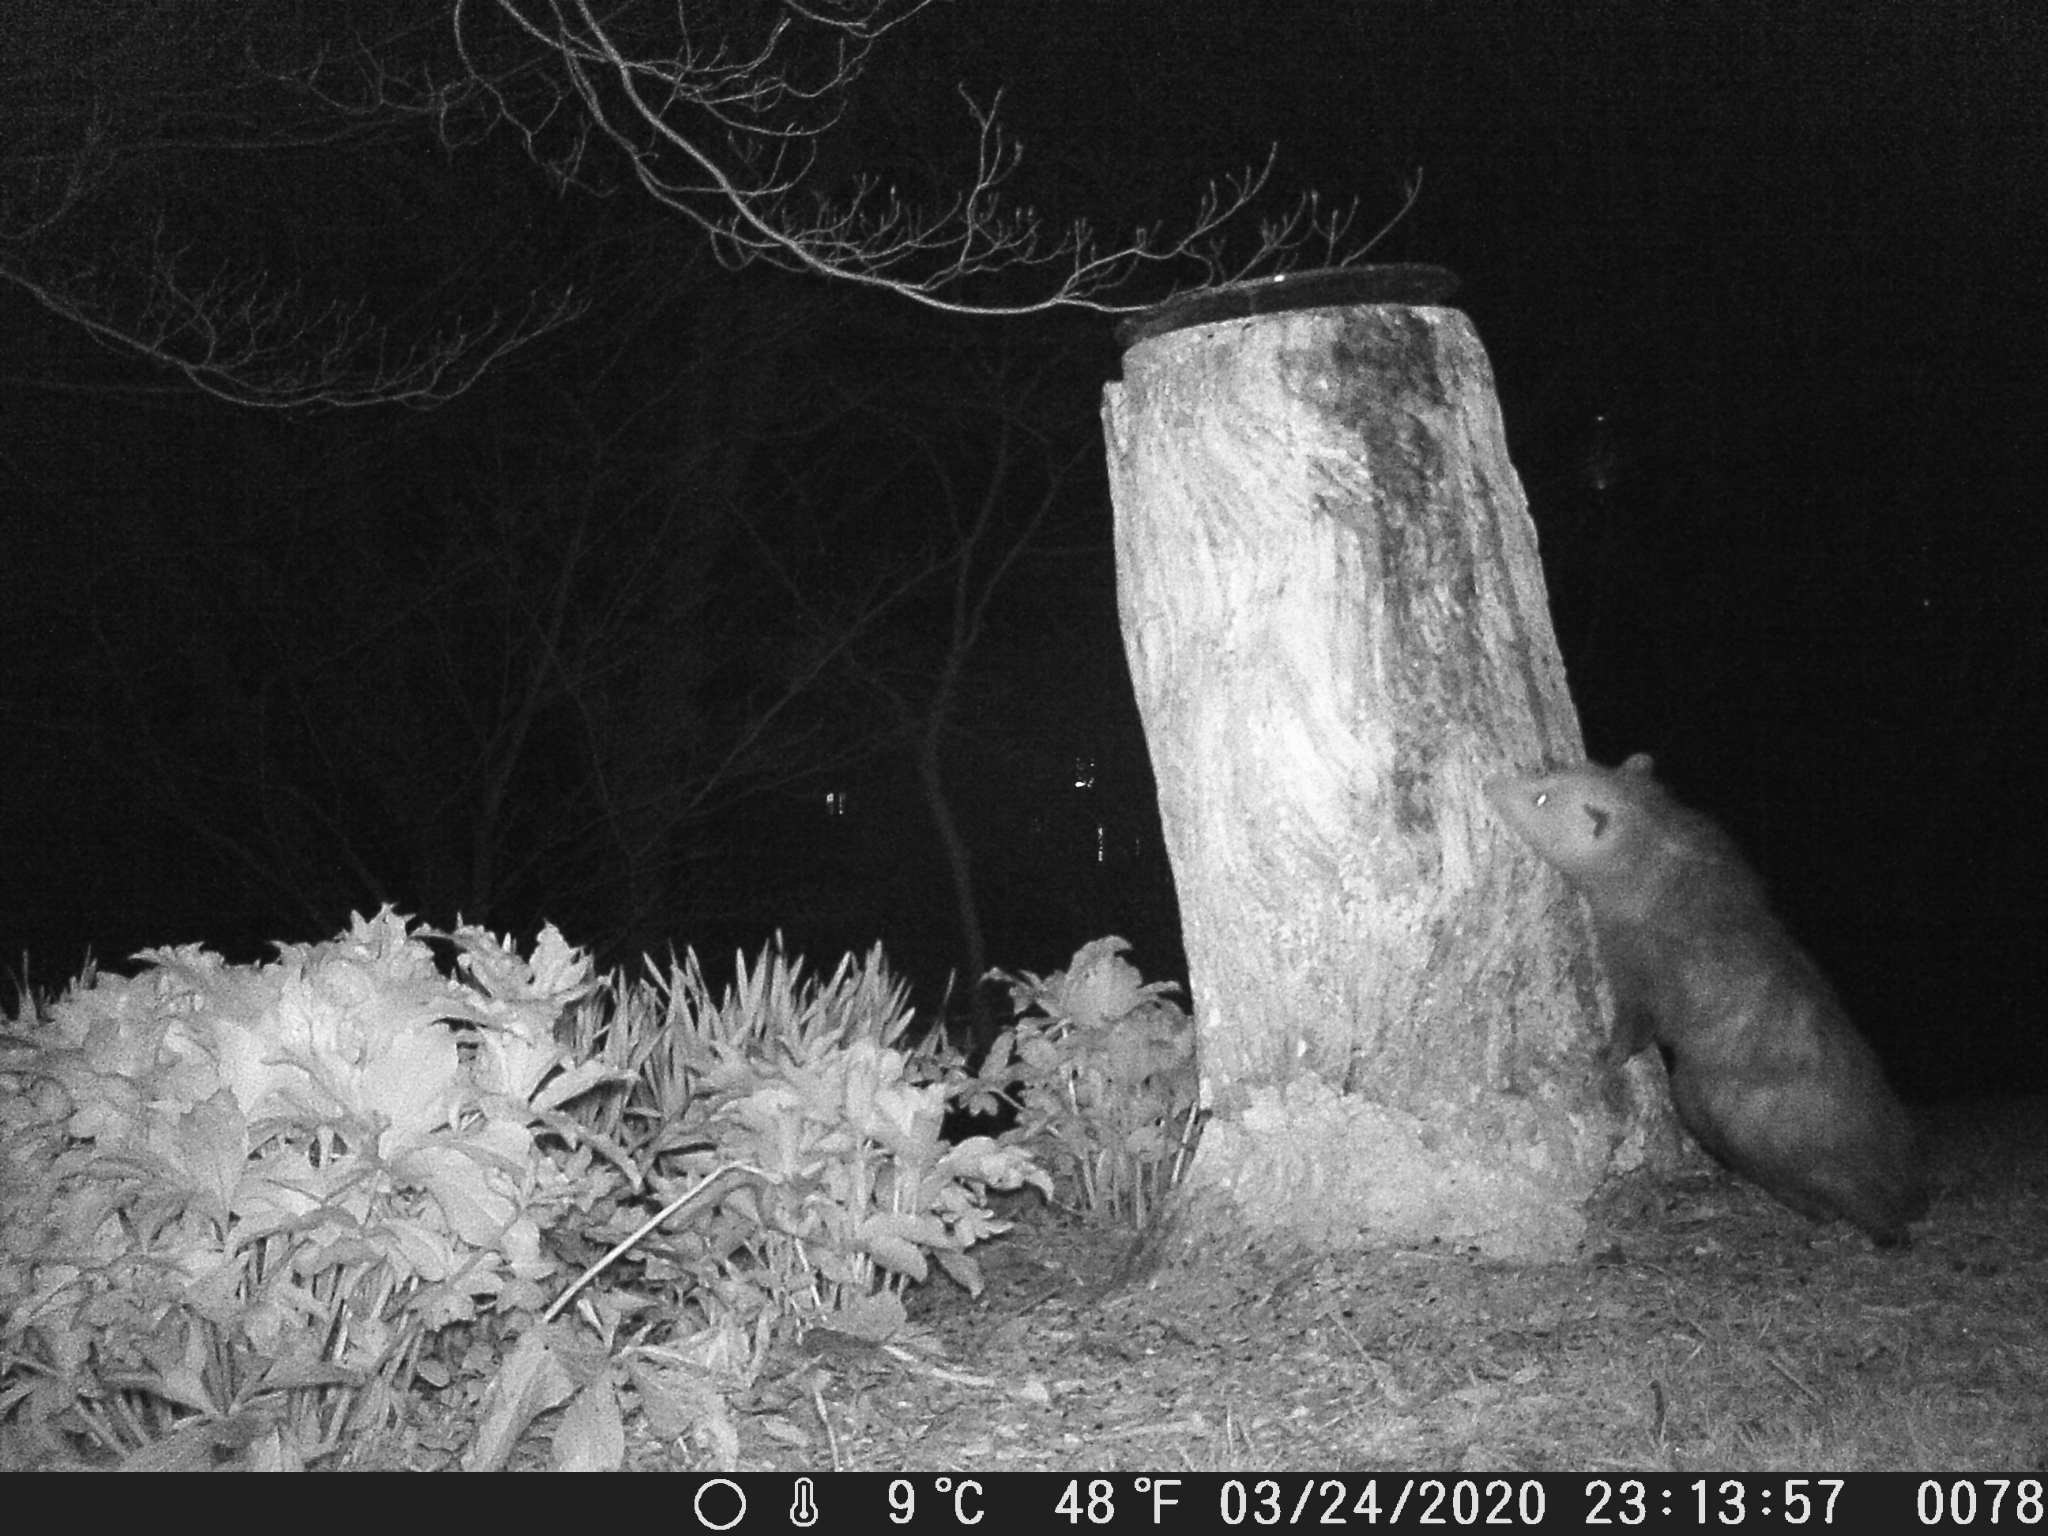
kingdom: Animalia
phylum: Chordata
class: Mammalia
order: Didelphimorphia
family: Didelphidae
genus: Didelphis
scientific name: Didelphis virginiana
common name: Virginia opossum
